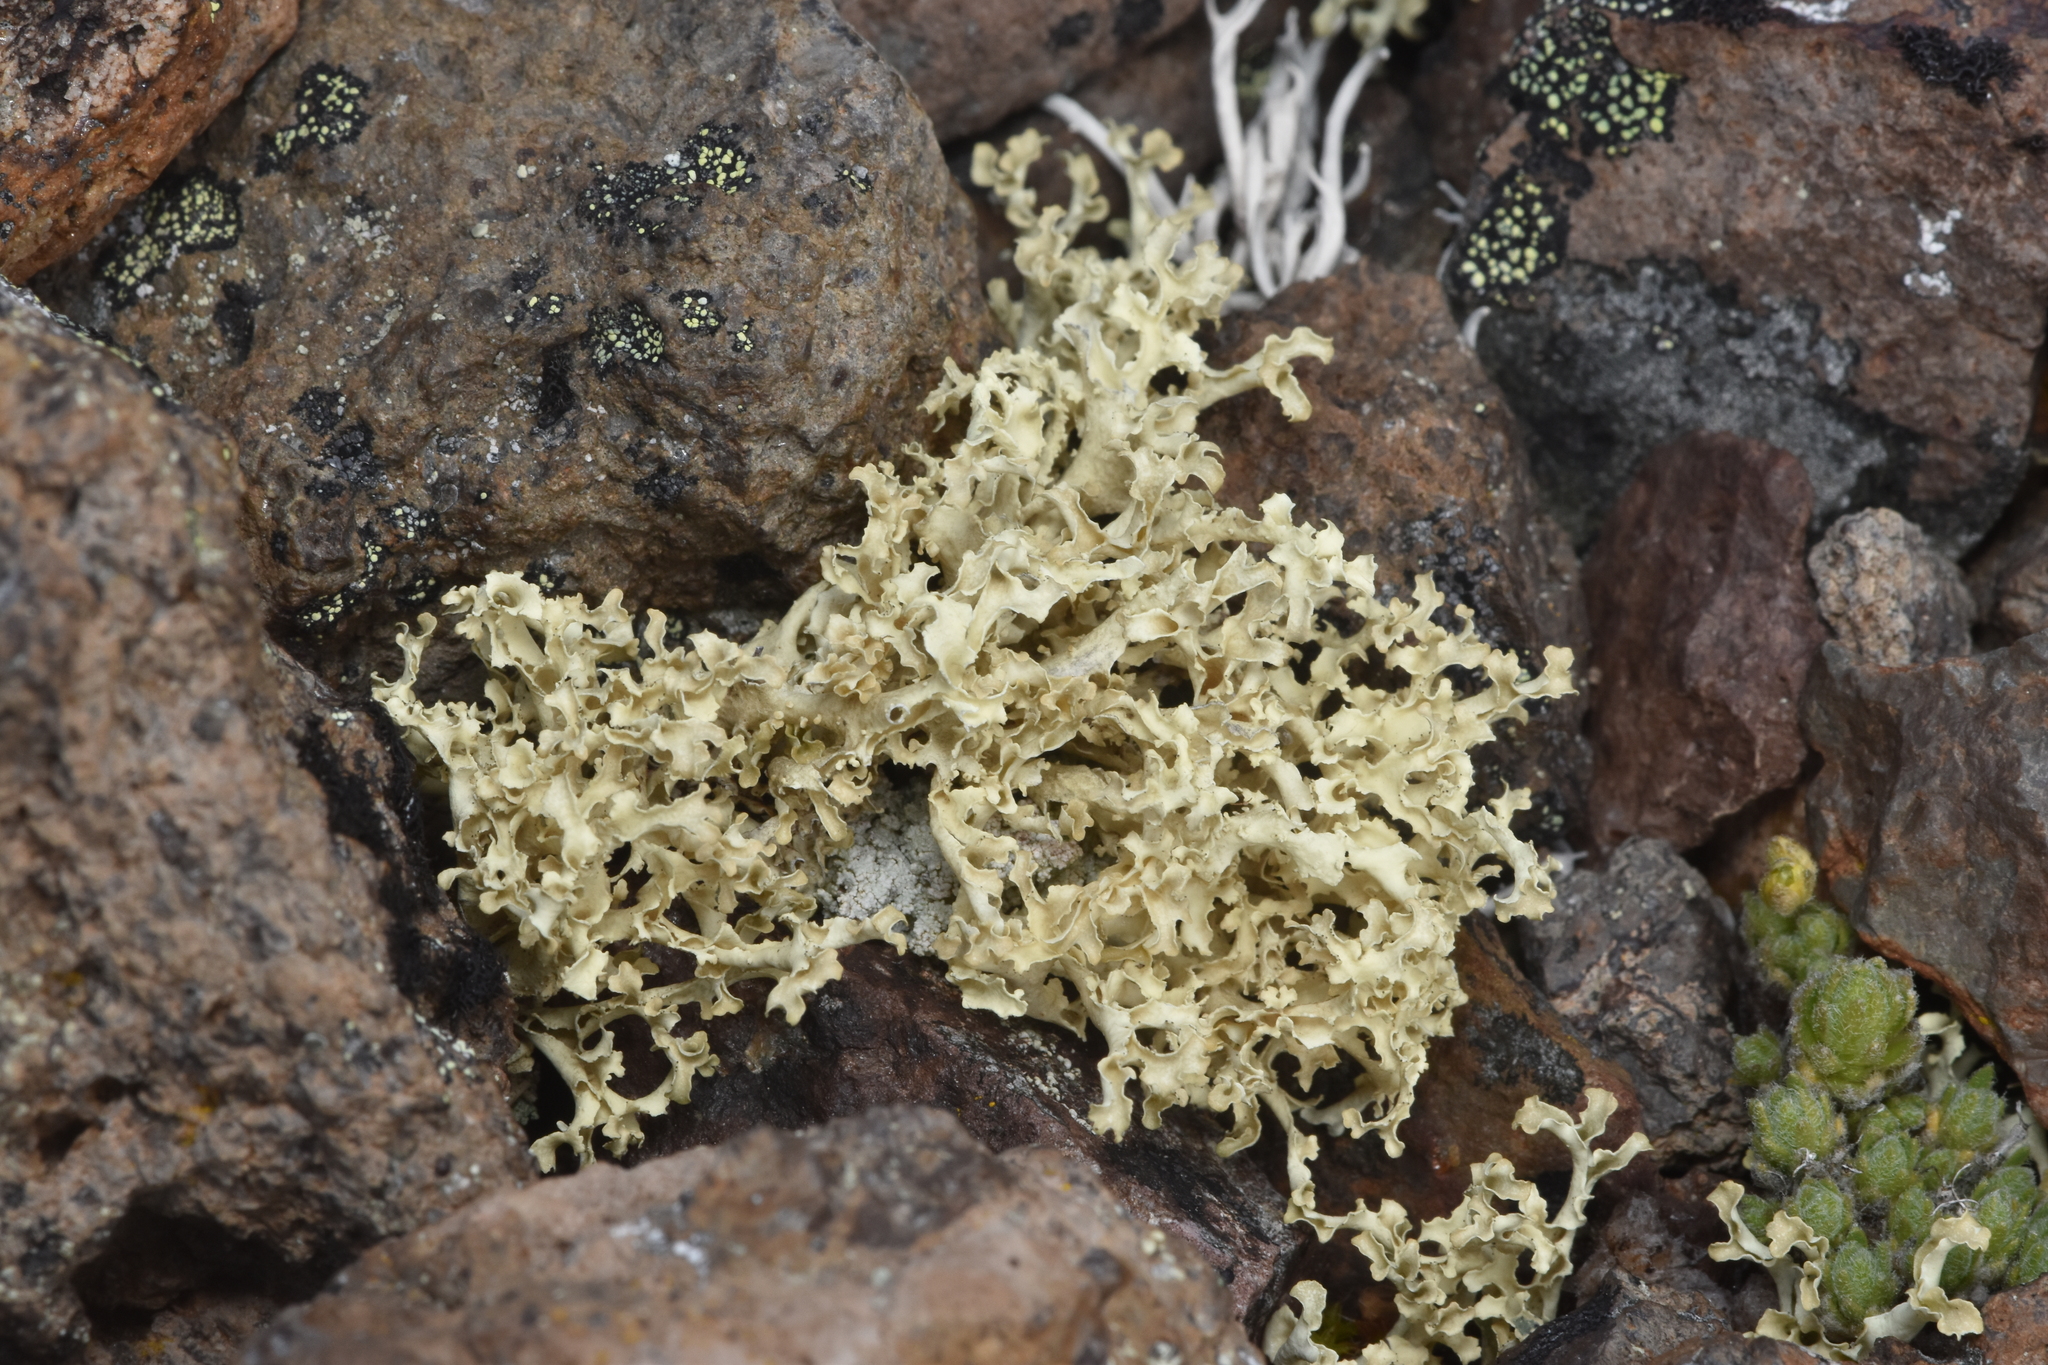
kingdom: Fungi
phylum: Ascomycota
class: Lecanoromycetes
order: Lecanorales
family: Parmeliaceae
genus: Nephromopsis
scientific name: Nephromopsis cucullata
